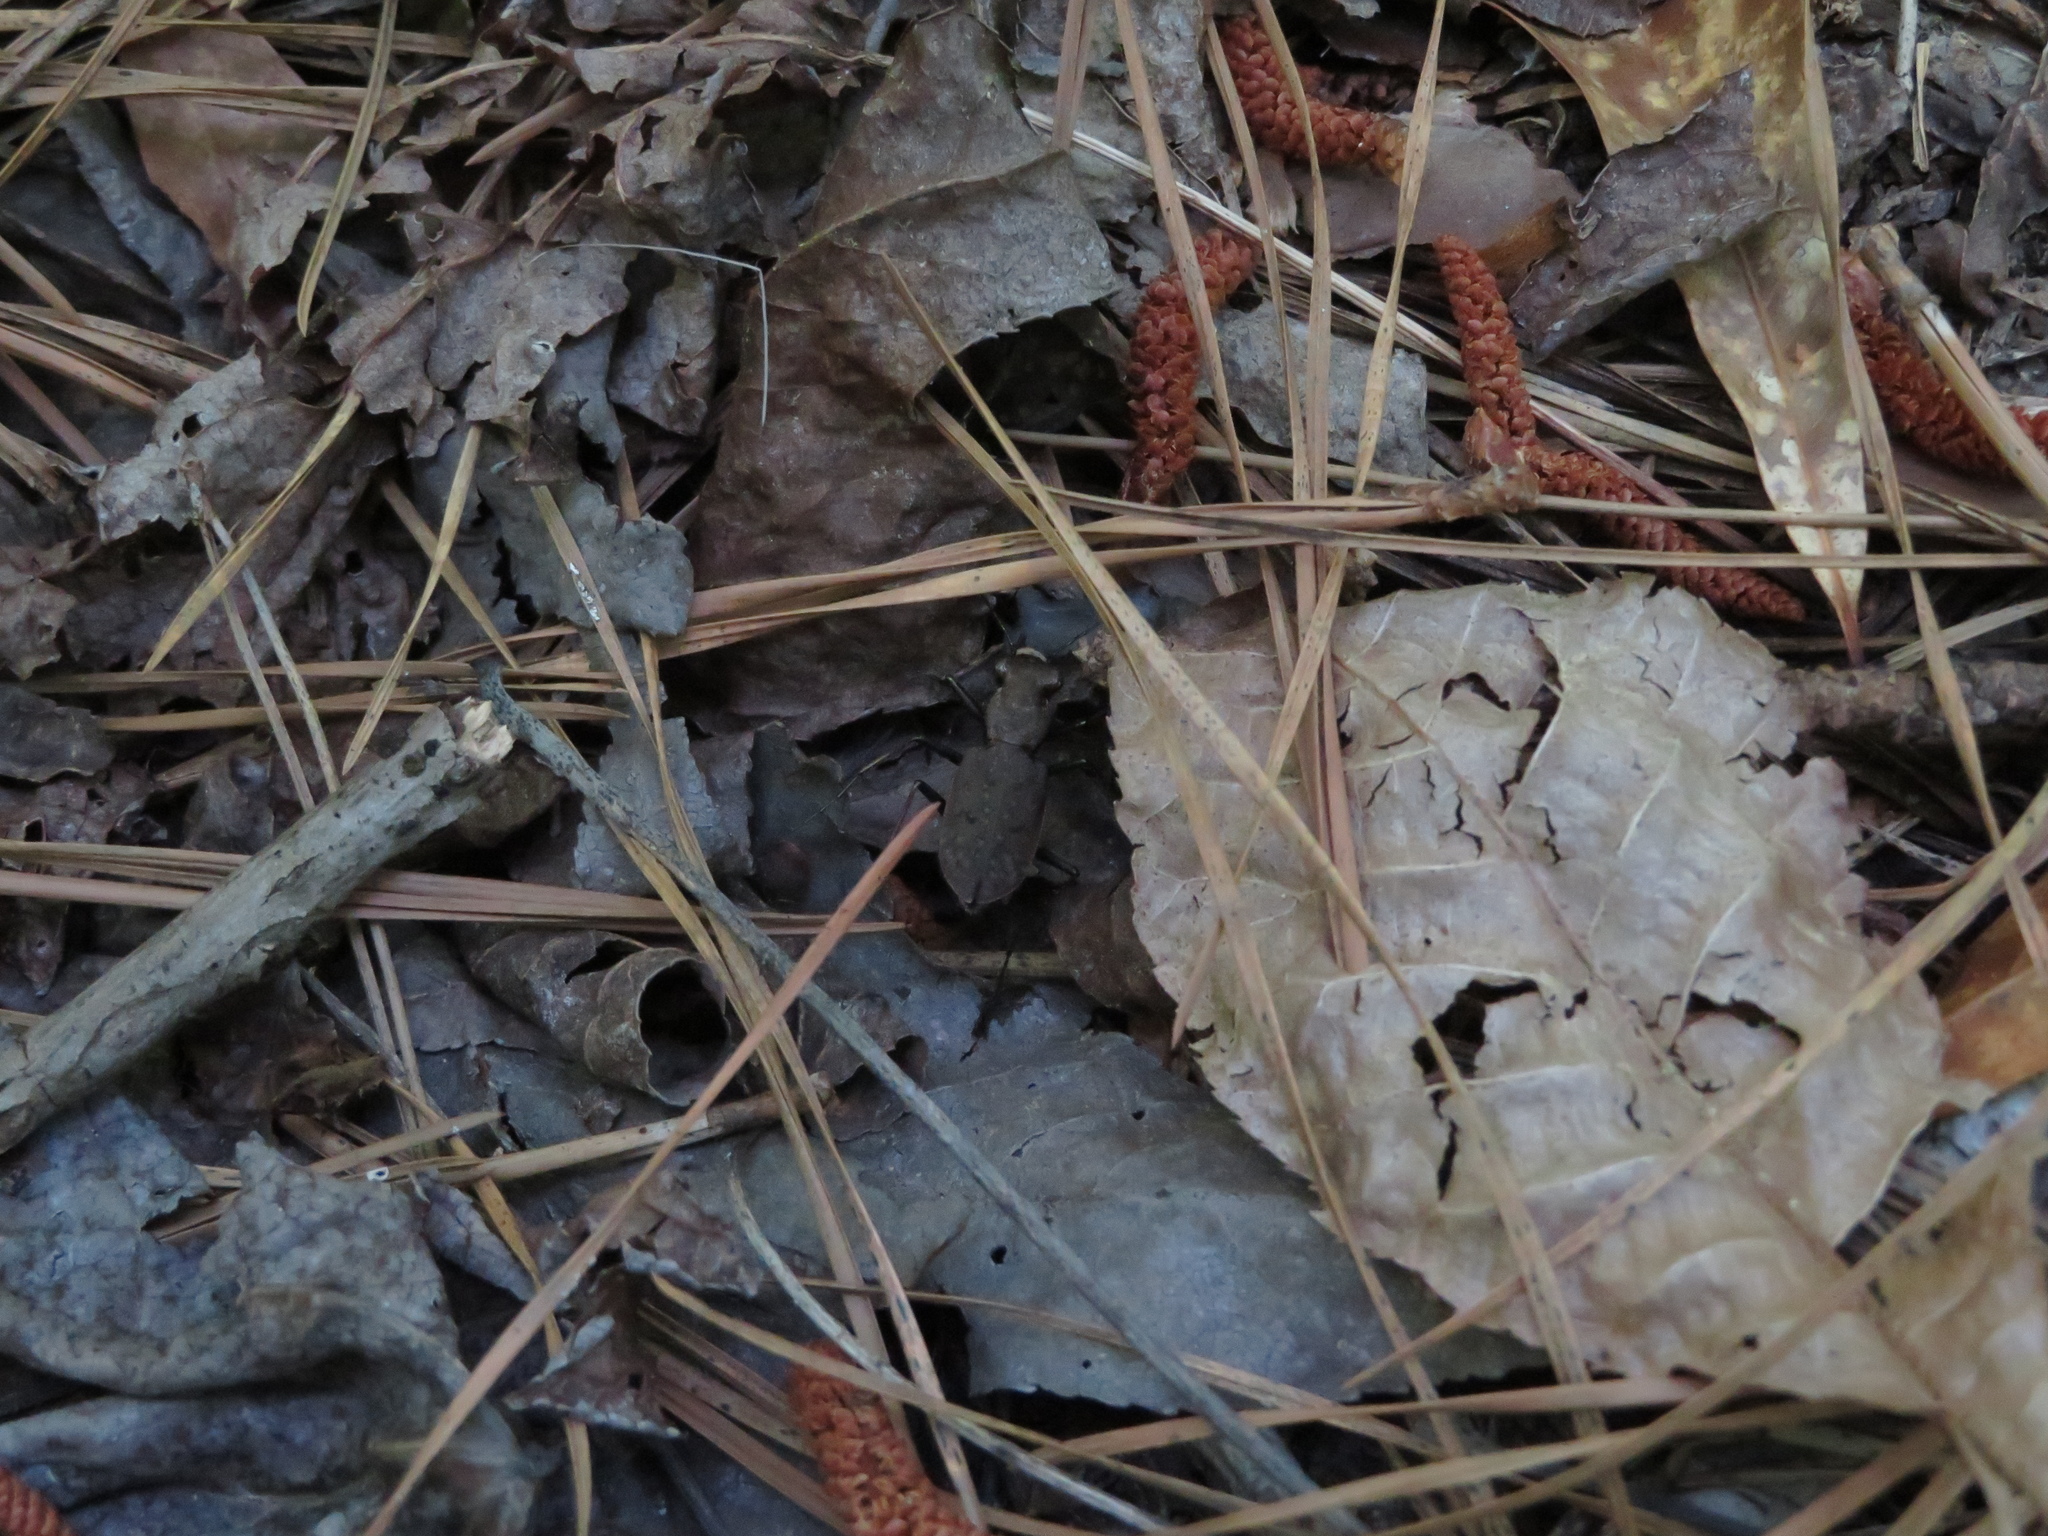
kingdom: Animalia
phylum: Arthropoda
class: Insecta
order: Coleoptera
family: Carabidae
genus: Cylindera
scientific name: Cylindera unipunctata
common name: One-spotted tiger beetle
